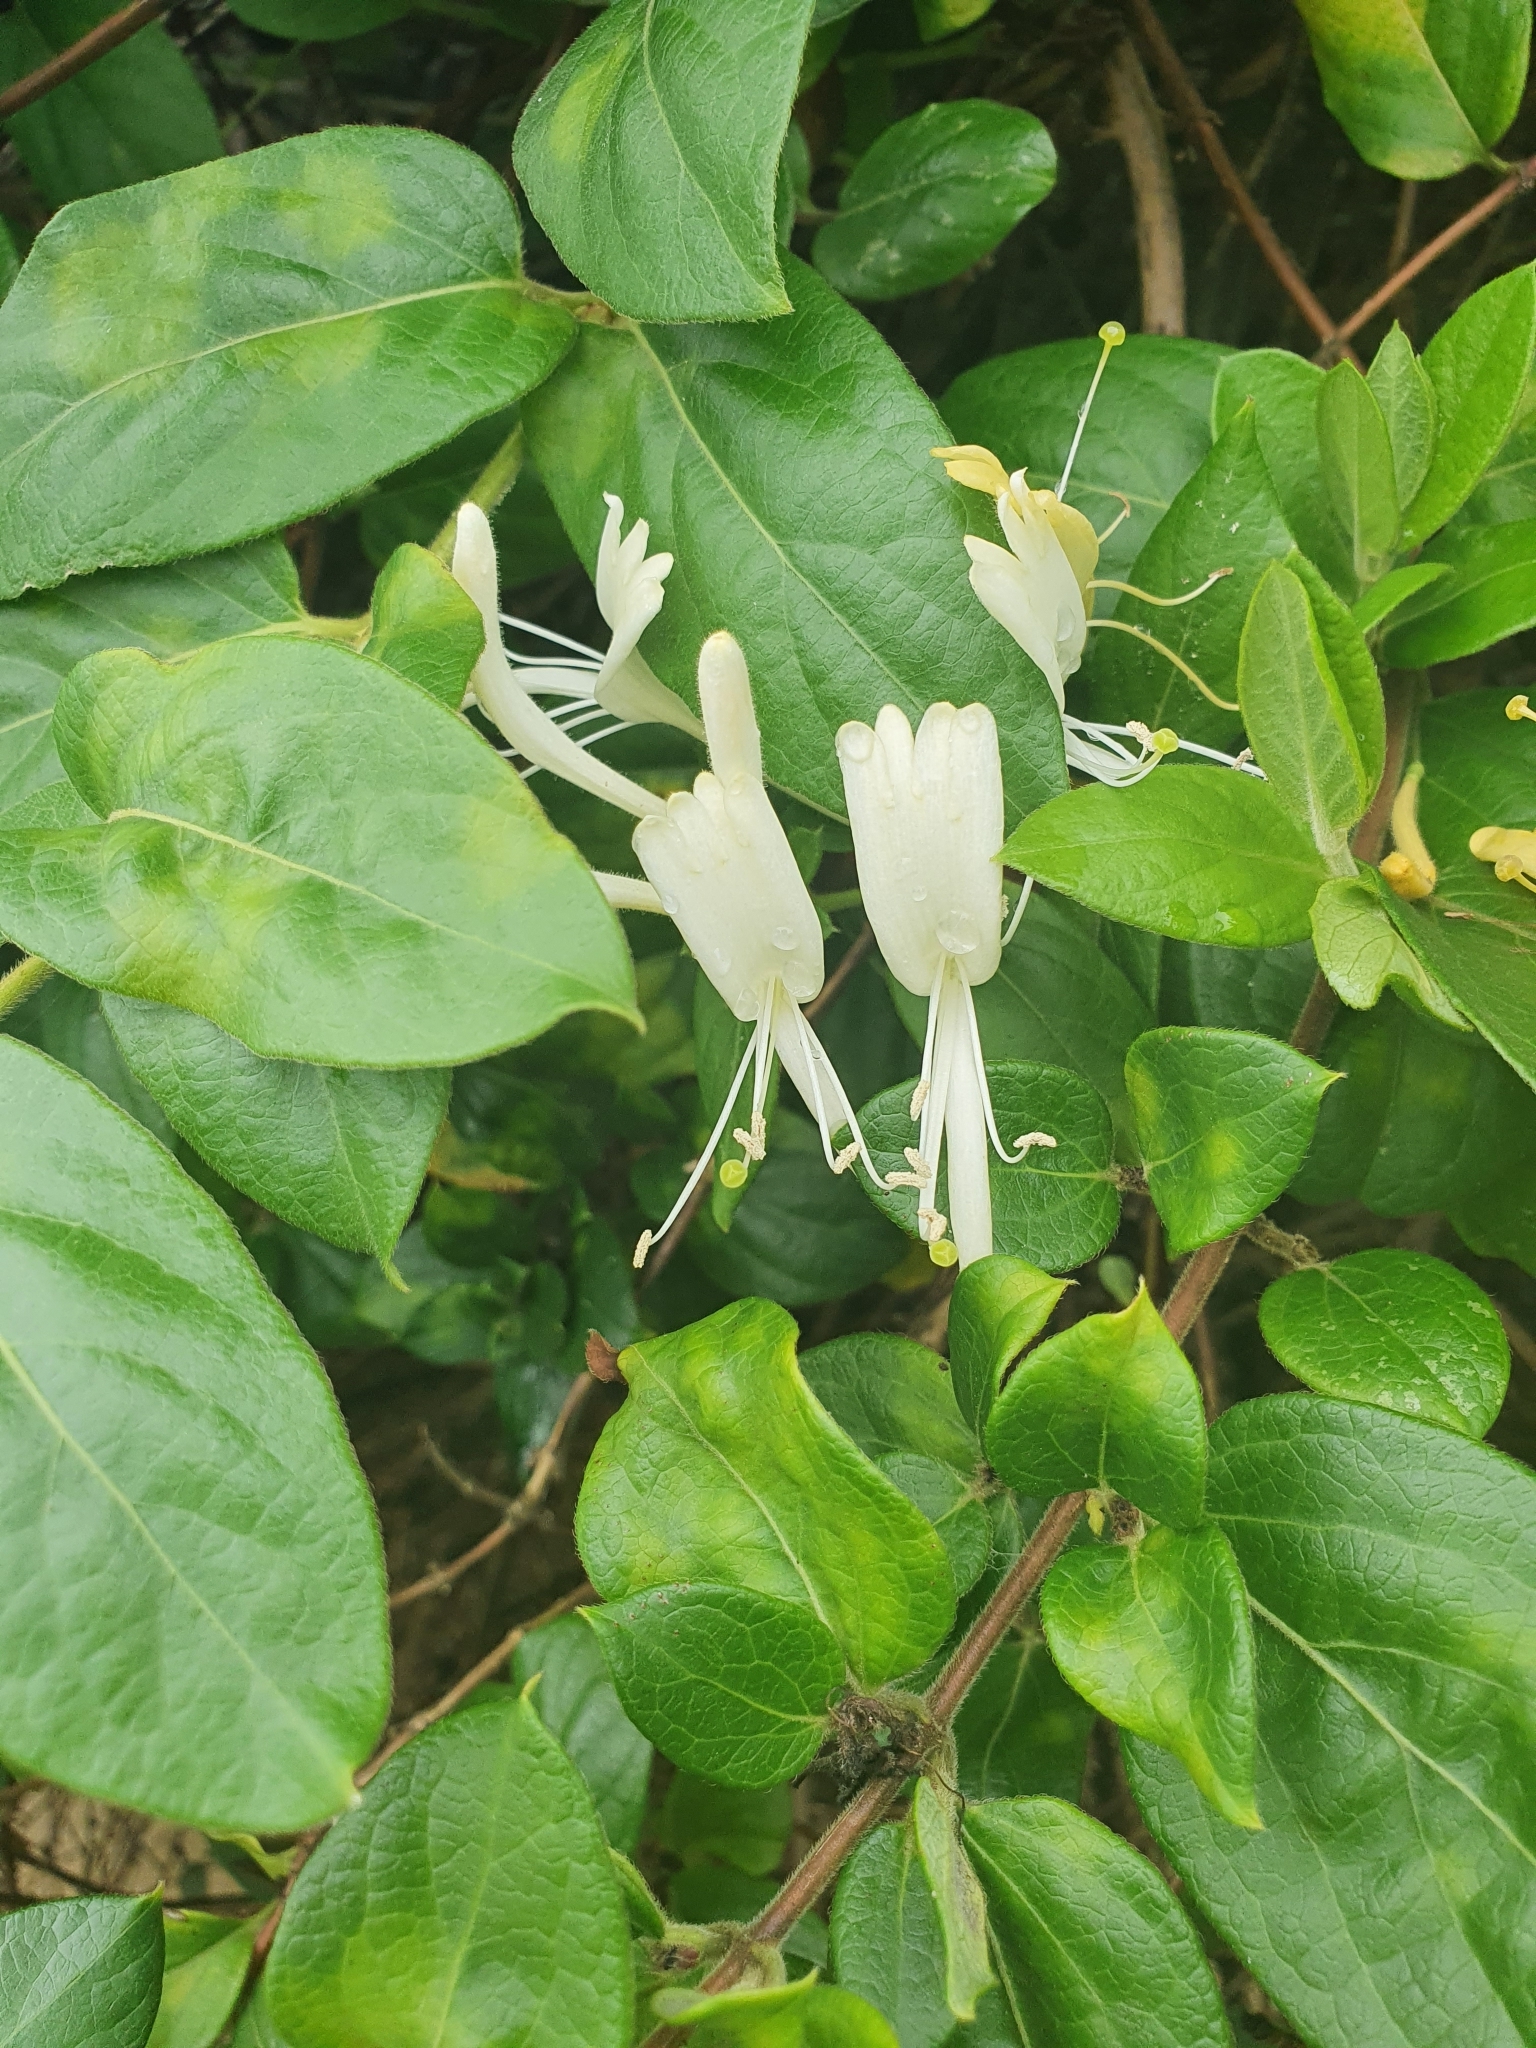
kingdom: Plantae
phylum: Tracheophyta
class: Magnoliopsida
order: Dipsacales
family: Caprifoliaceae
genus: Lonicera
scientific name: Lonicera japonica
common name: Japanese honeysuckle
